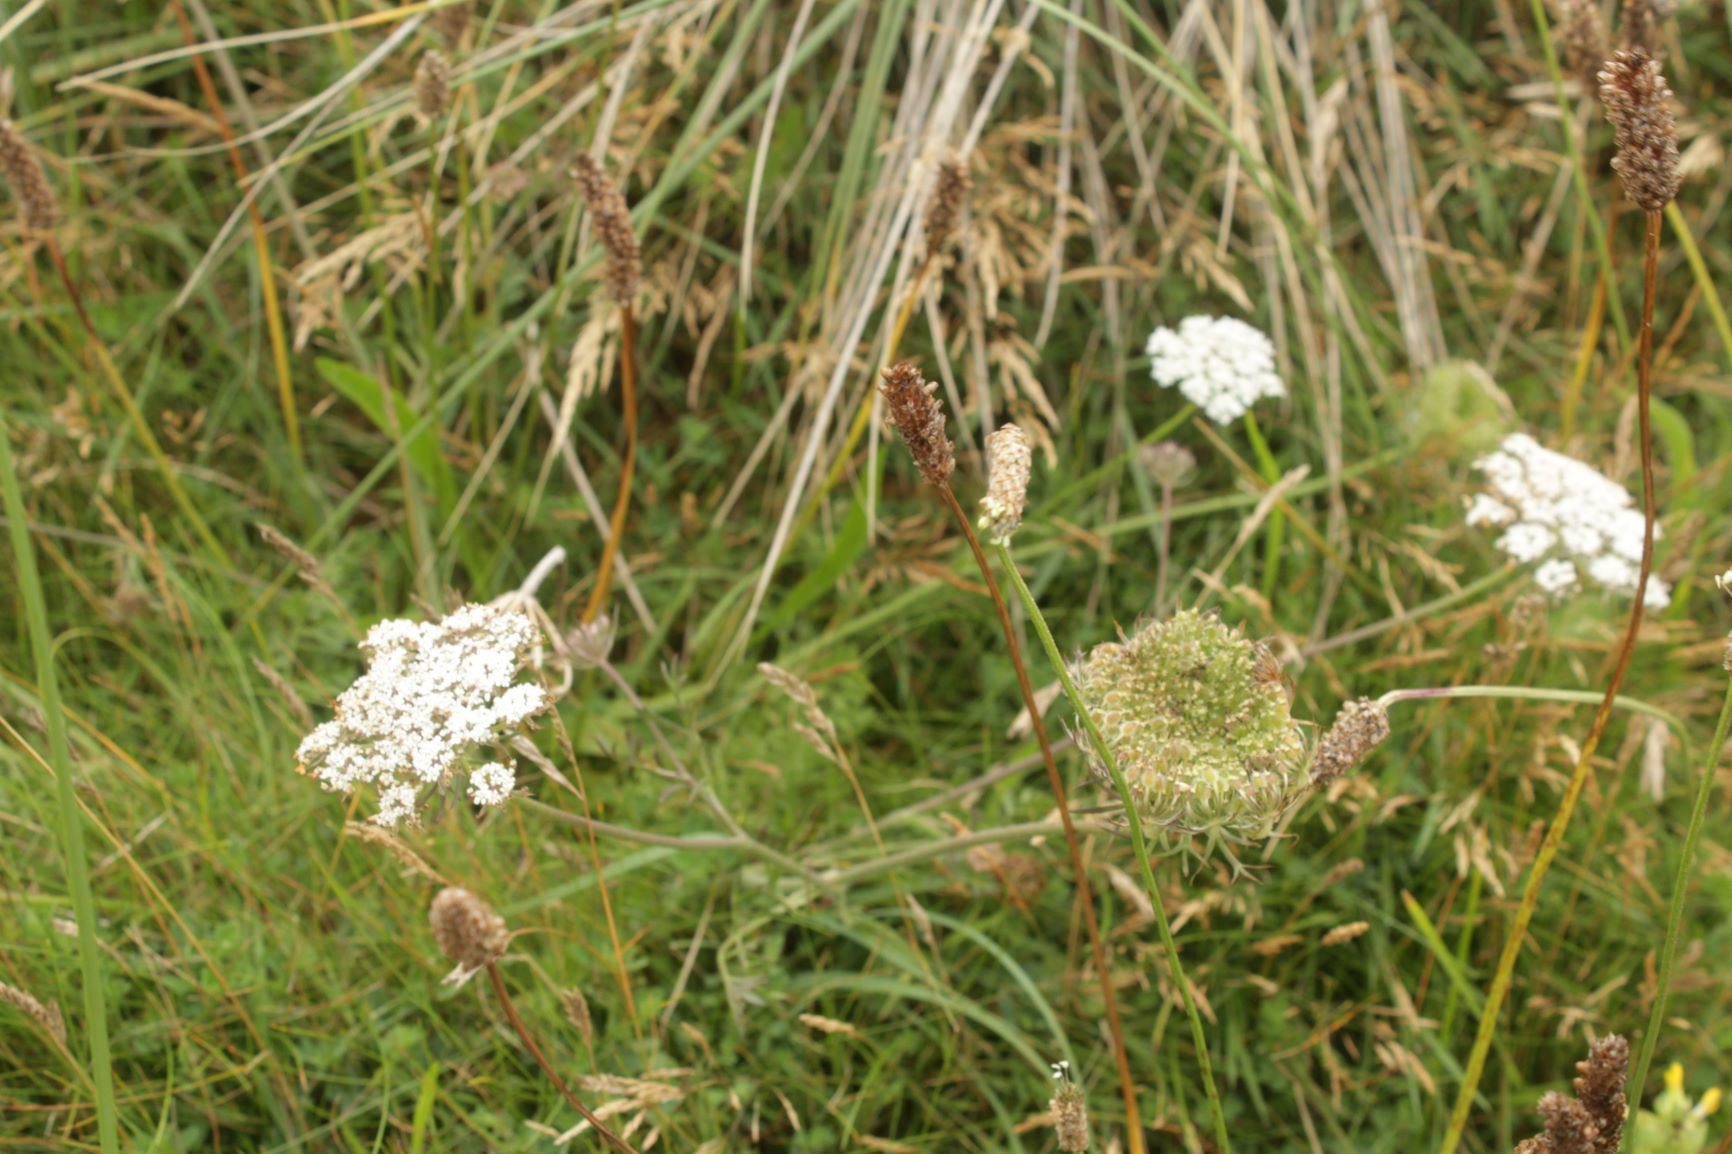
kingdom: Plantae
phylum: Tracheophyta
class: Magnoliopsida
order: Apiales
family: Apiaceae
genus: Daucus
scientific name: Daucus carota
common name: Wild carrot
